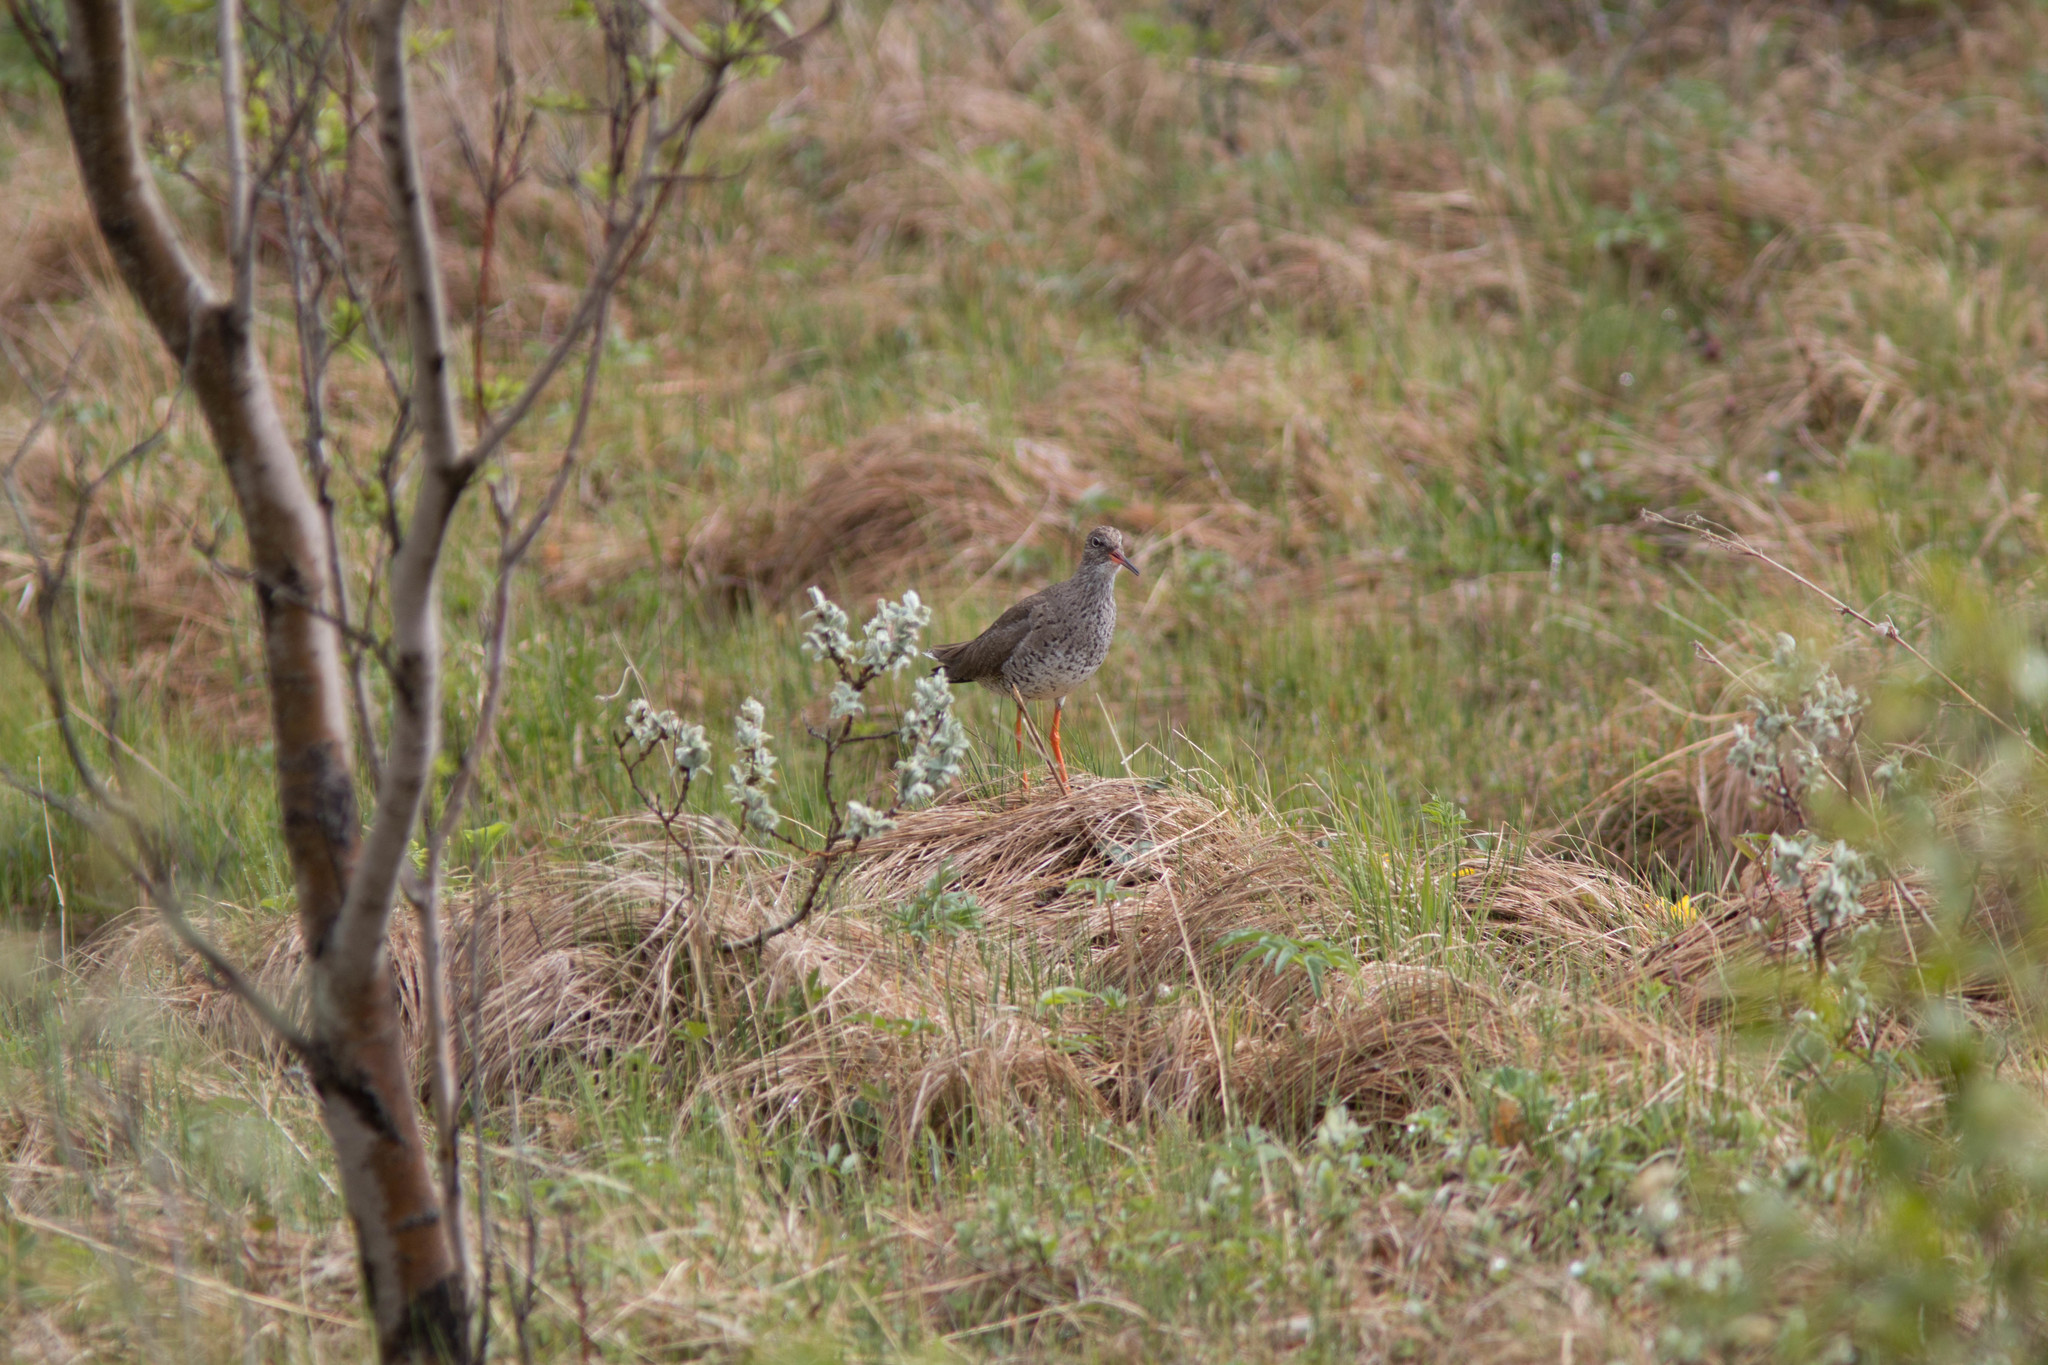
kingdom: Animalia
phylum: Chordata
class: Aves
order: Charadriiformes
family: Scolopacidae
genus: Tringa
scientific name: Tringa totanus
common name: Common redshank
